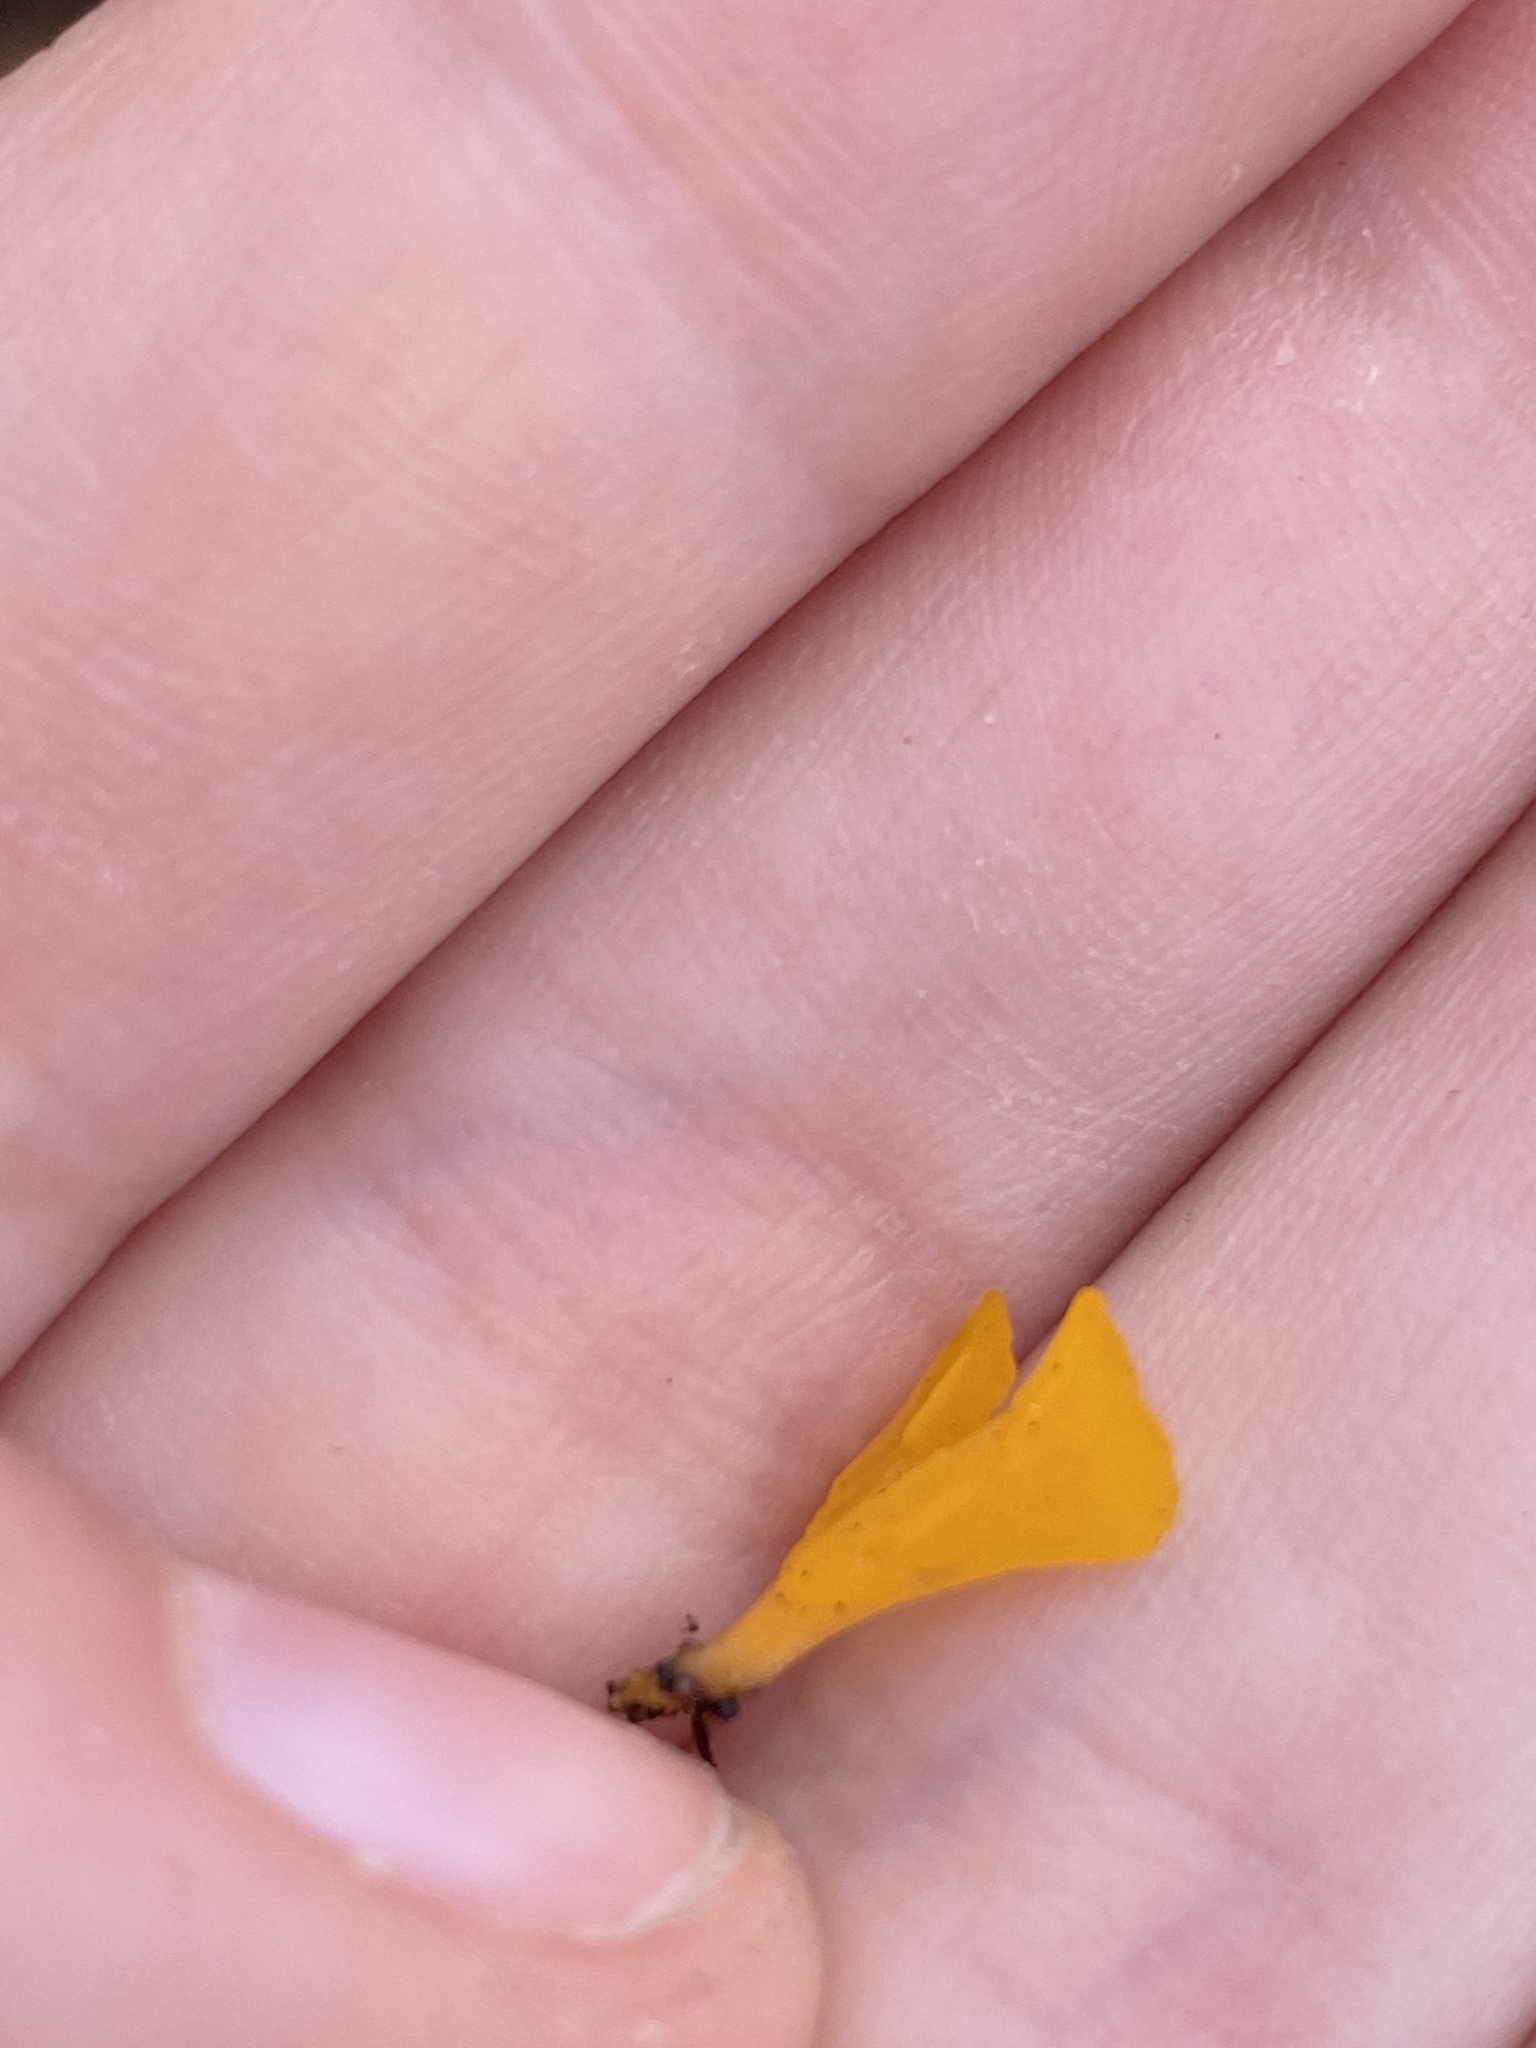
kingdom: Fungi
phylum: Basidiomycota
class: Dacrymycetes
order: Dacrymycetales
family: Dacrymycetaceae
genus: Dacrymyces
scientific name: Dacrymyces spathularius
